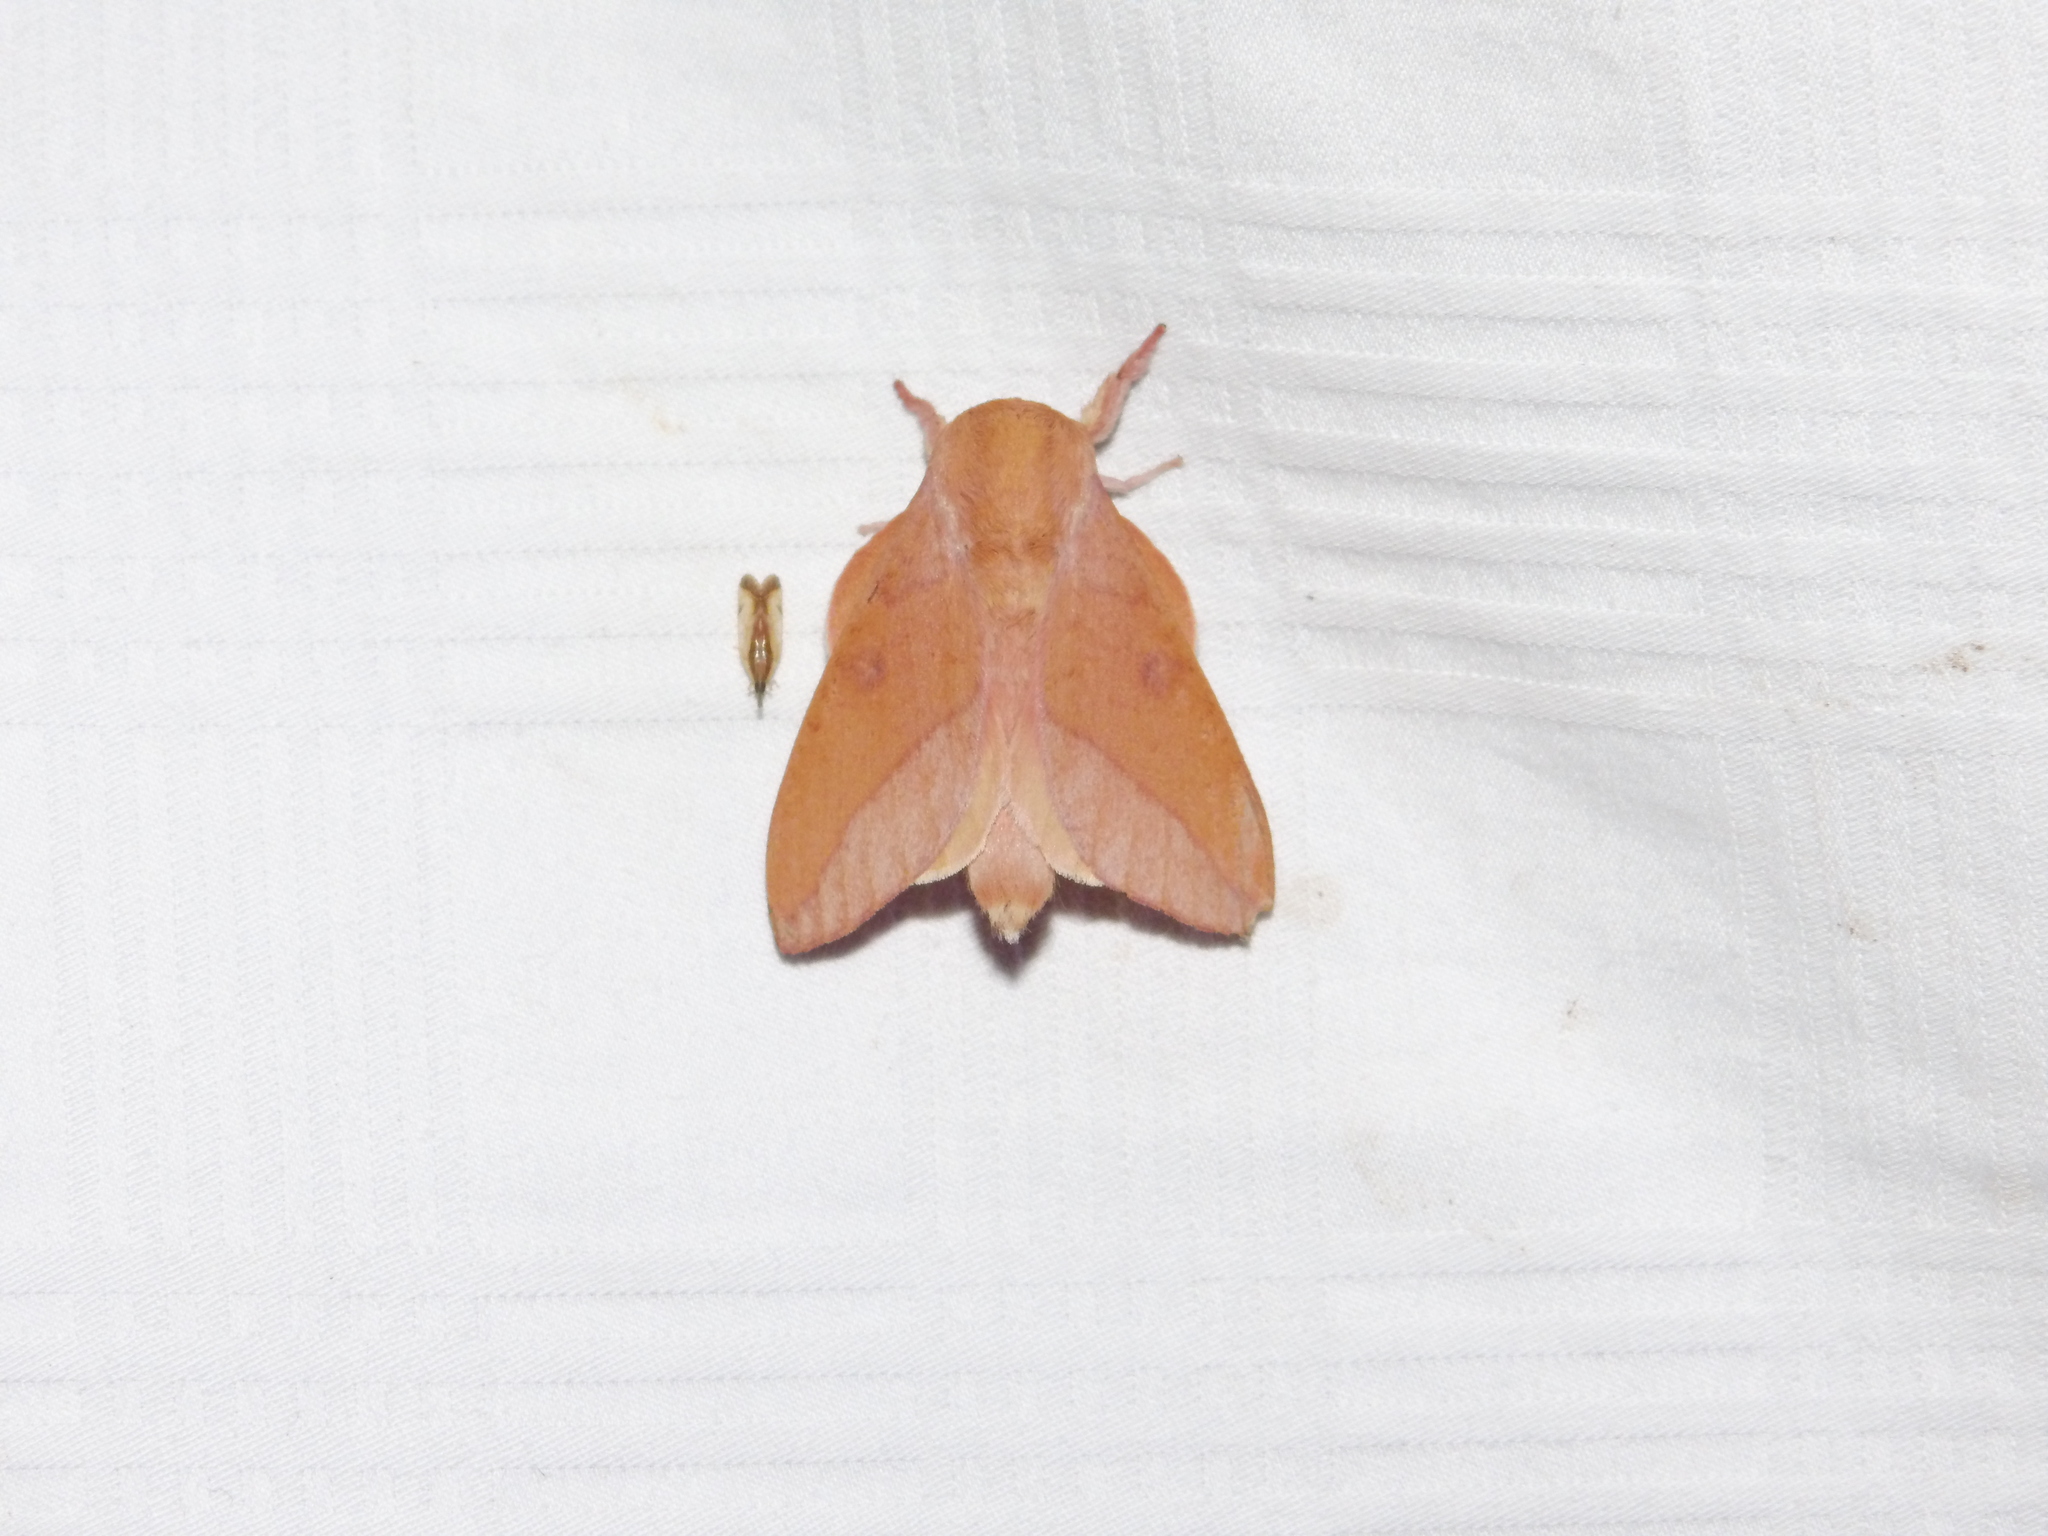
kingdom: Animalia
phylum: Arthropoda
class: Insecta
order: Lepidoptera
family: Saturniidae
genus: Adeloneivaia
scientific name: Adeloneivaia isara
